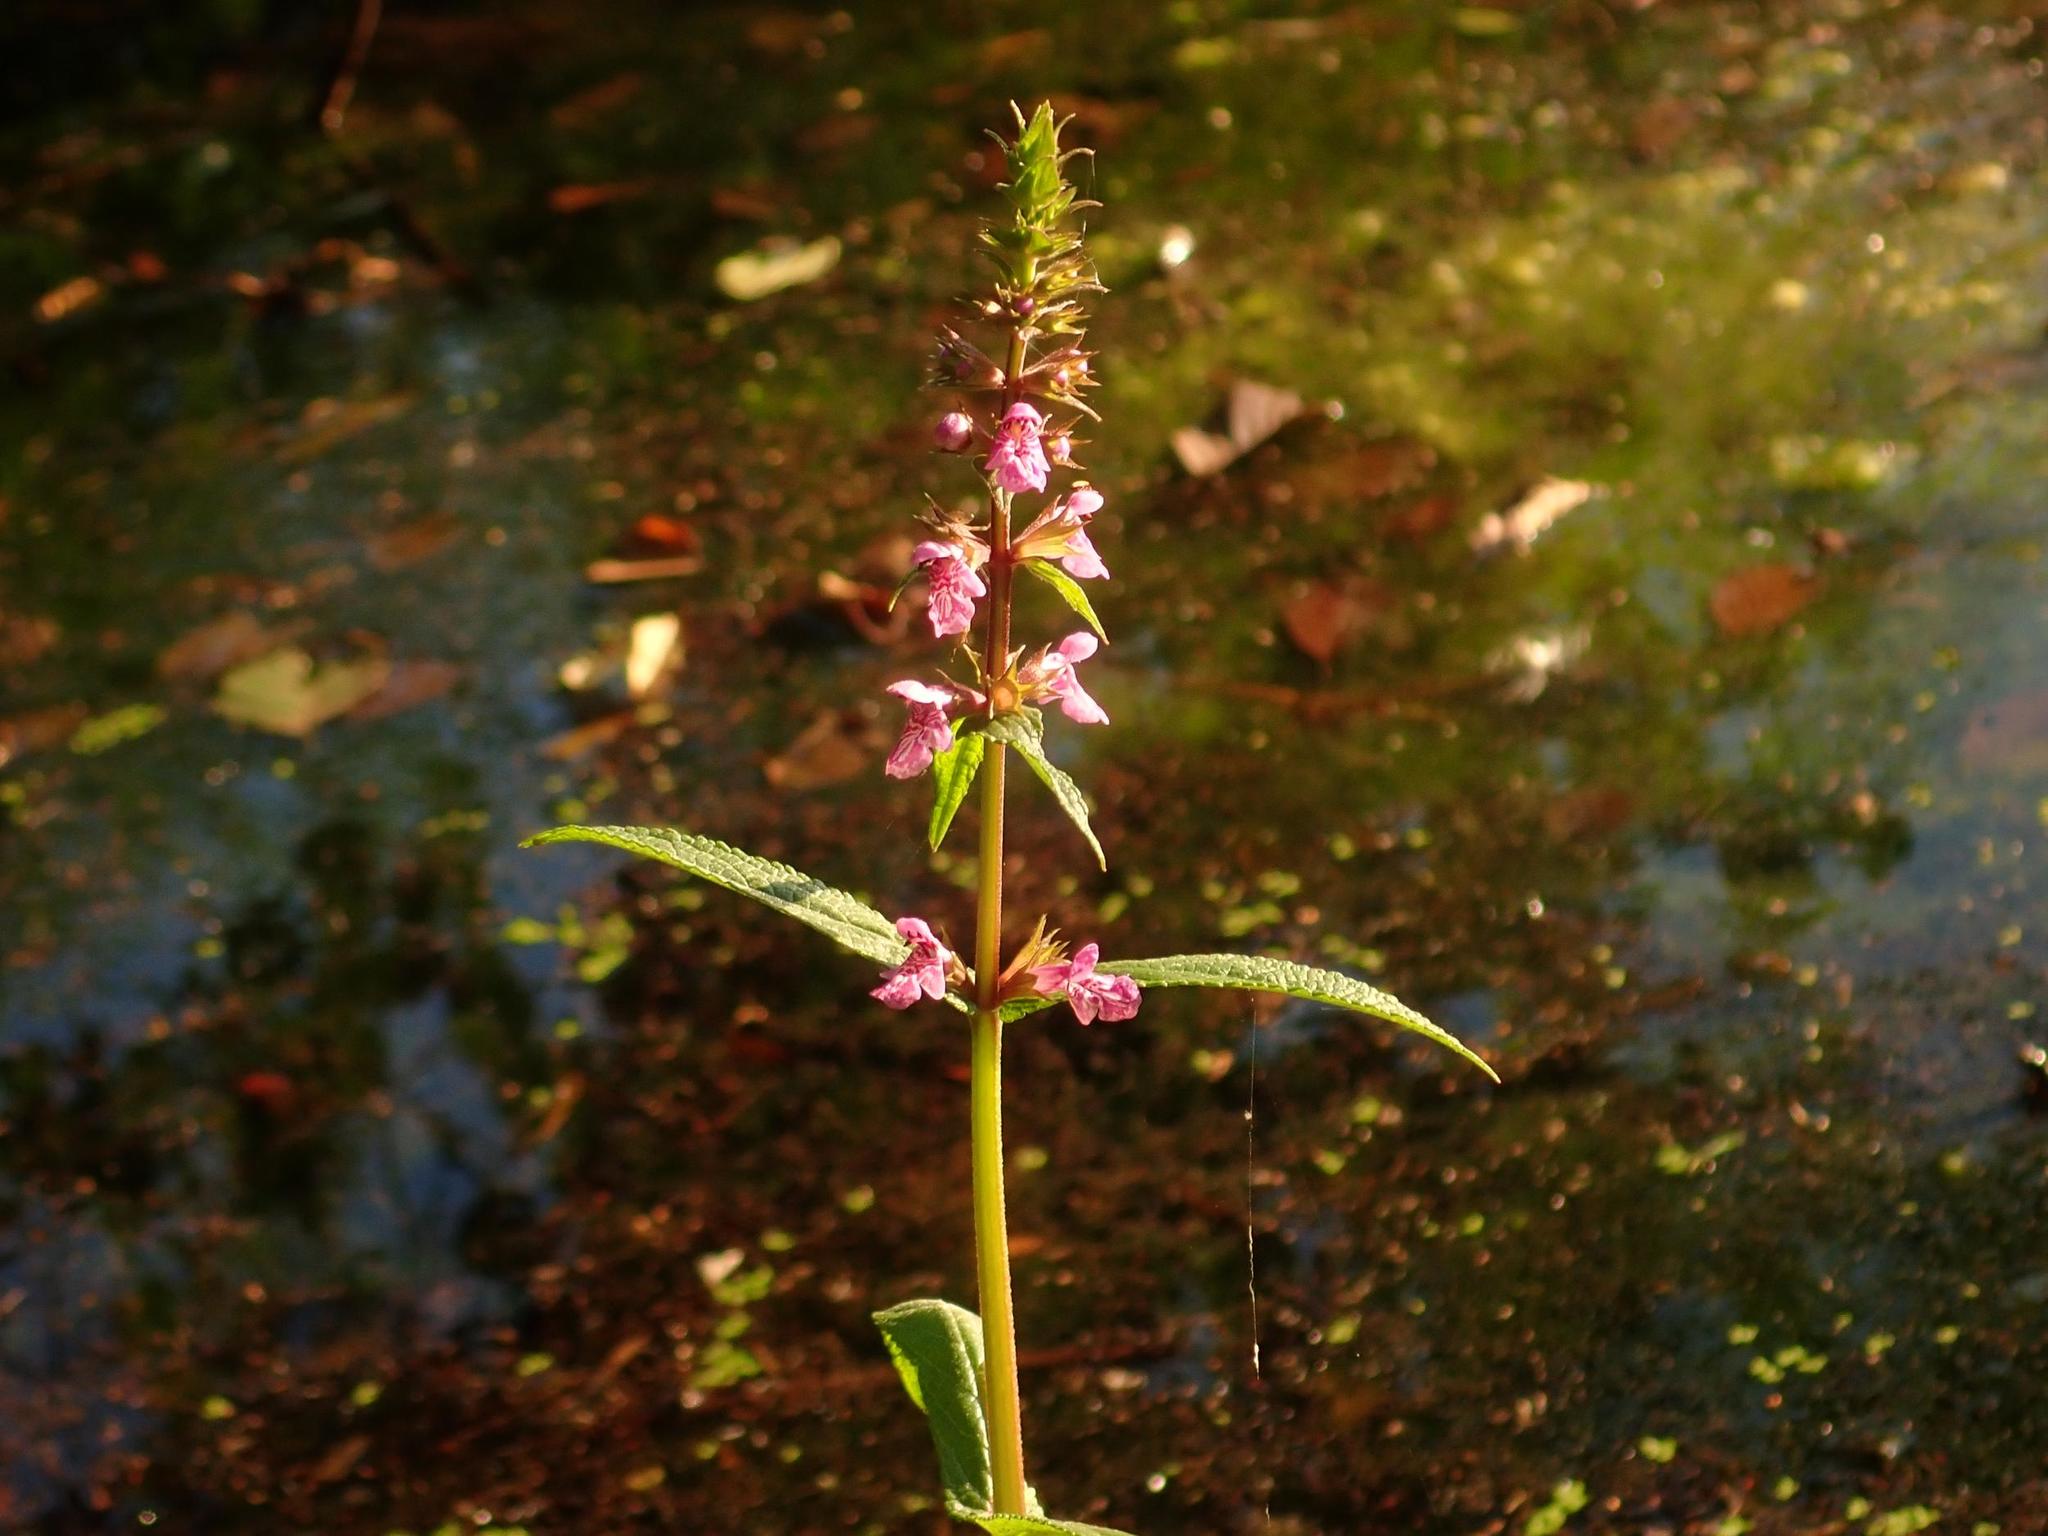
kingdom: Plantae
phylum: Tracheophyta
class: Magnoliopsida
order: Lamiales
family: Lamiaceae
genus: Stachys
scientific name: Stachys palustris
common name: Marsh woundwort
